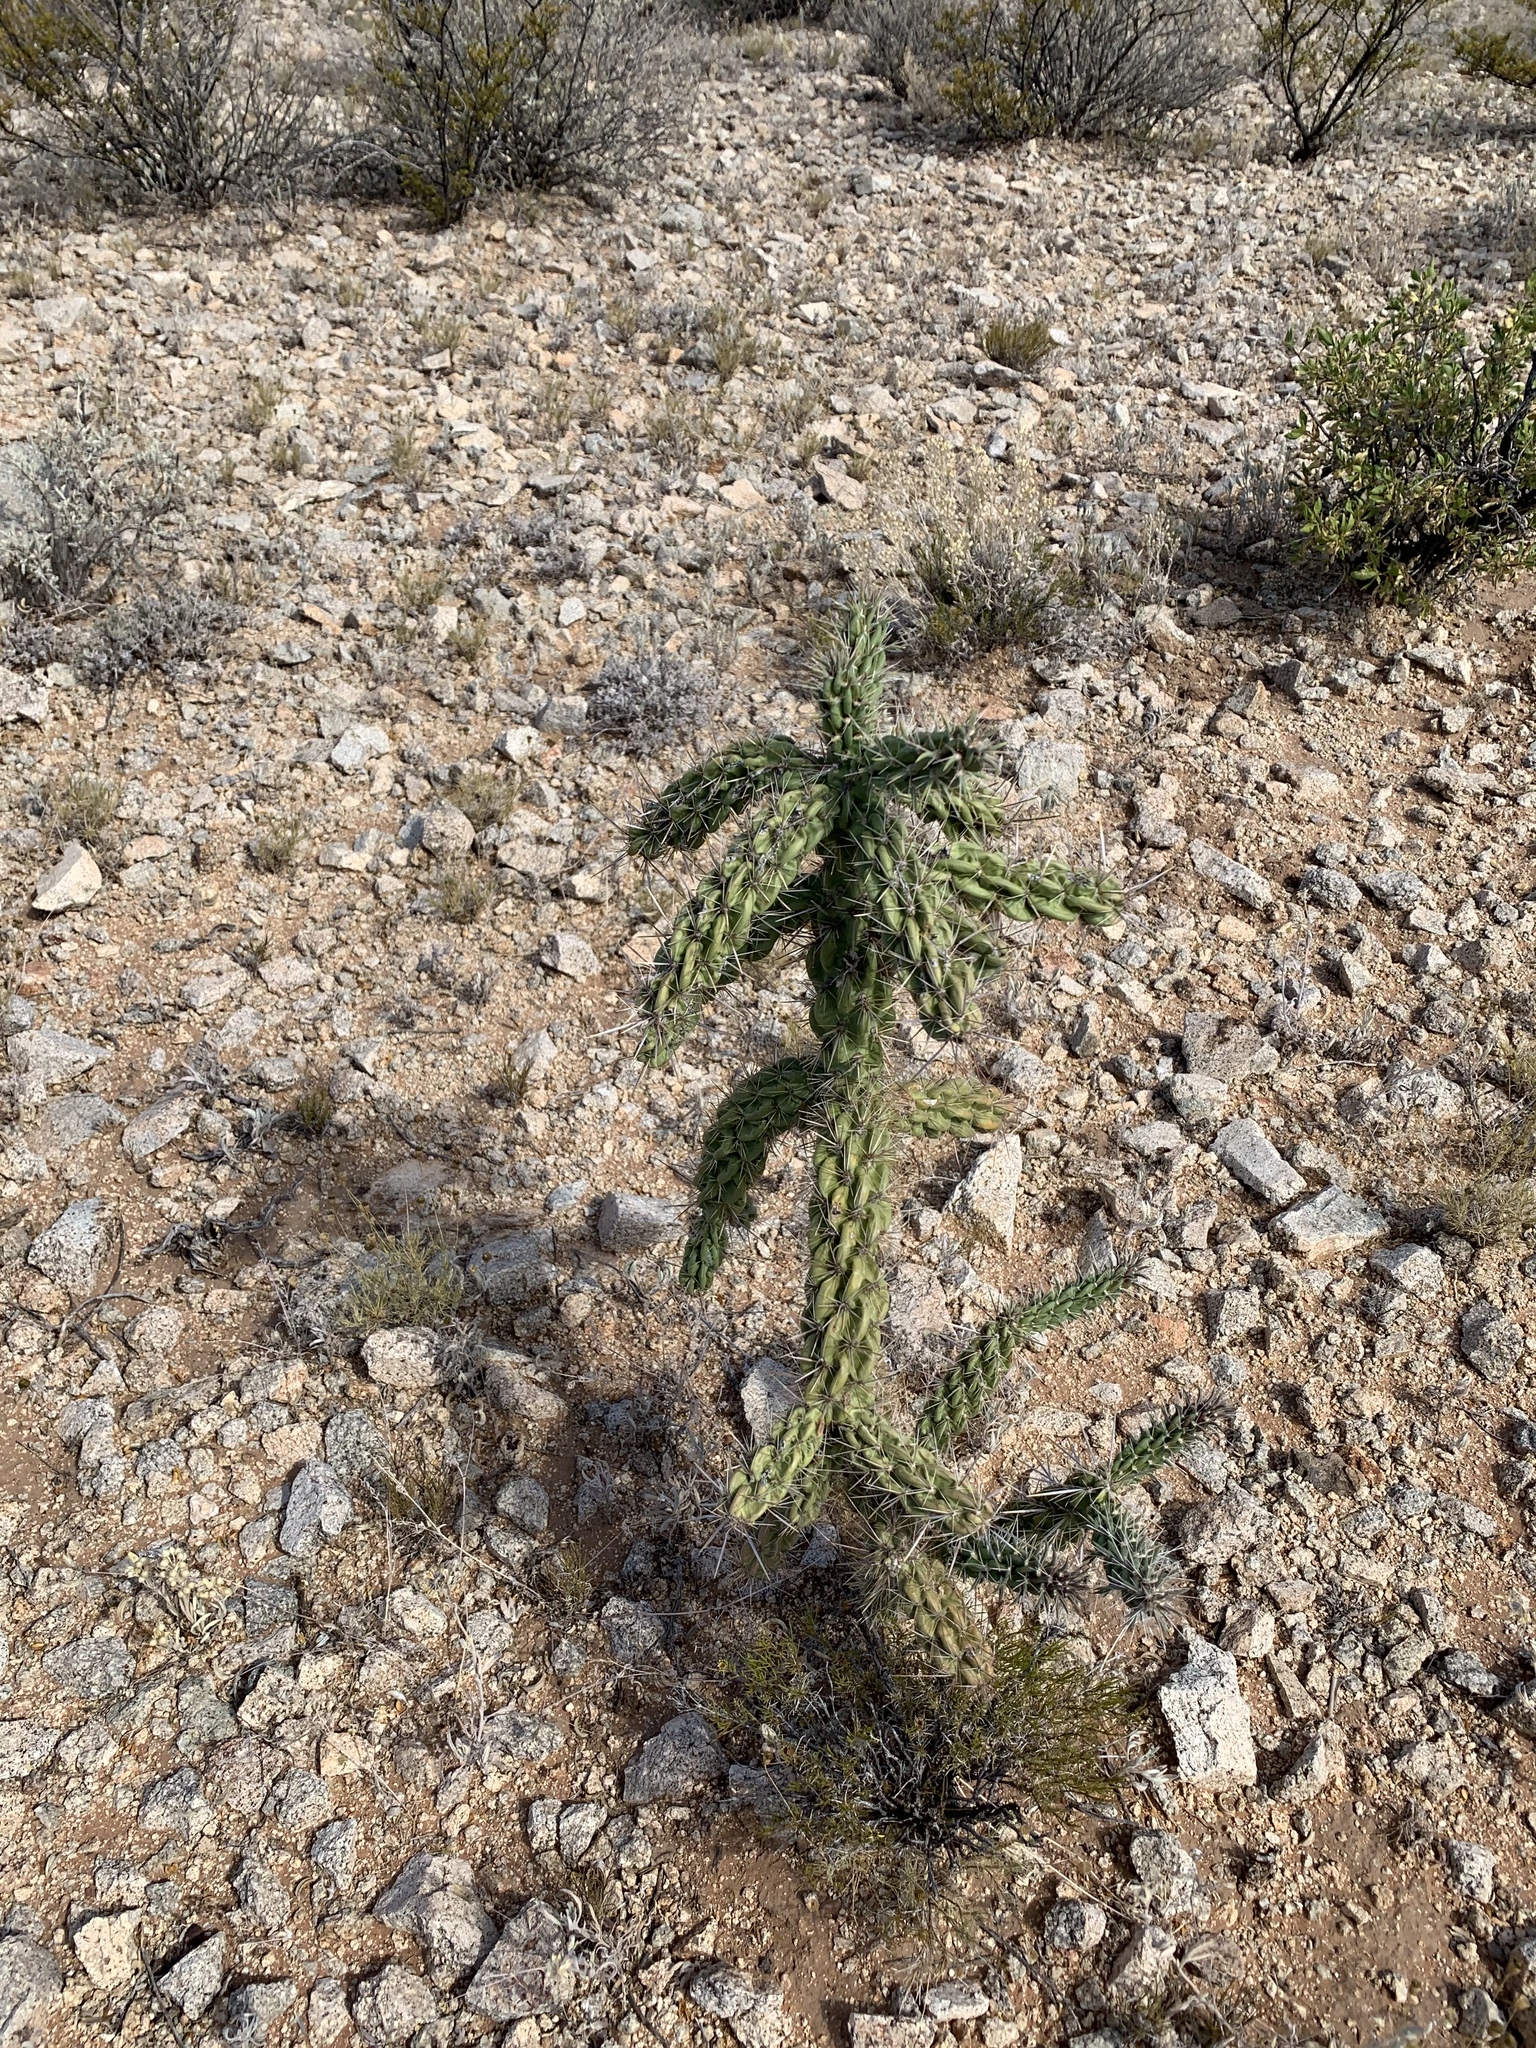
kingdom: Plantae
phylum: Tracheophyta
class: Magnoliopsida
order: Caryophyllales
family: Cactaceae
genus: Cylindropuntia
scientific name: Cylindropuntia imbricata
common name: Candelabrum cactus
